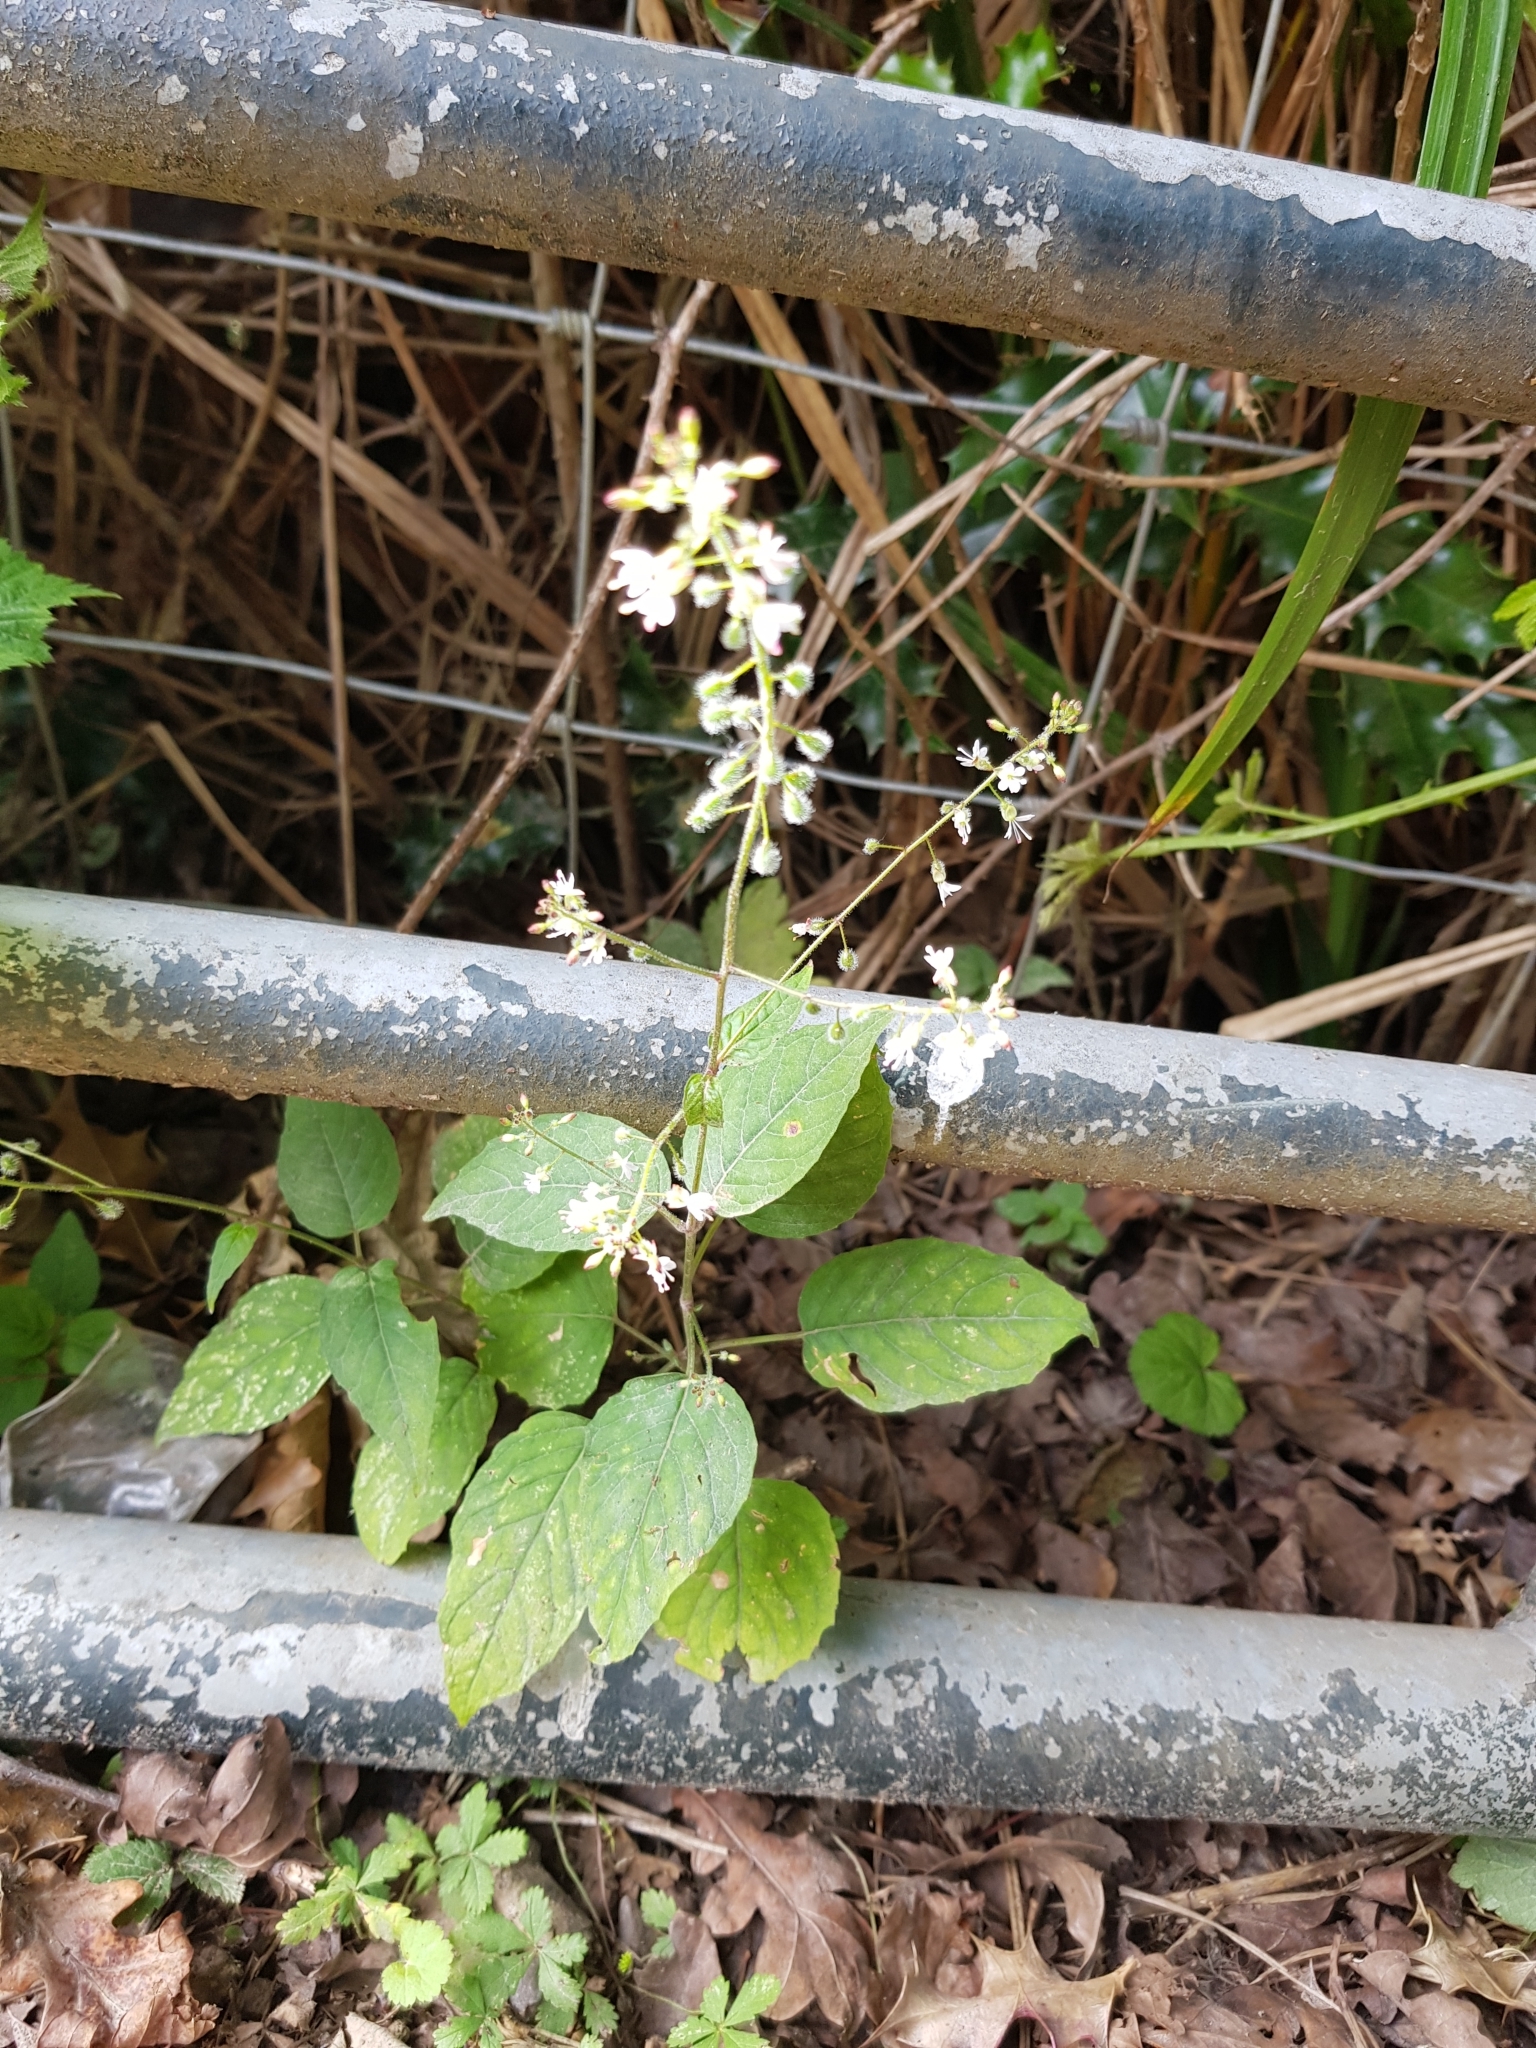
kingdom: Plantae
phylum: Tracheophyta
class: Magnoliopsida
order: Myrtales
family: Onagraceae
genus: Circaea
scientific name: Circaea lutetiana
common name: Enchanter's-nightshade
